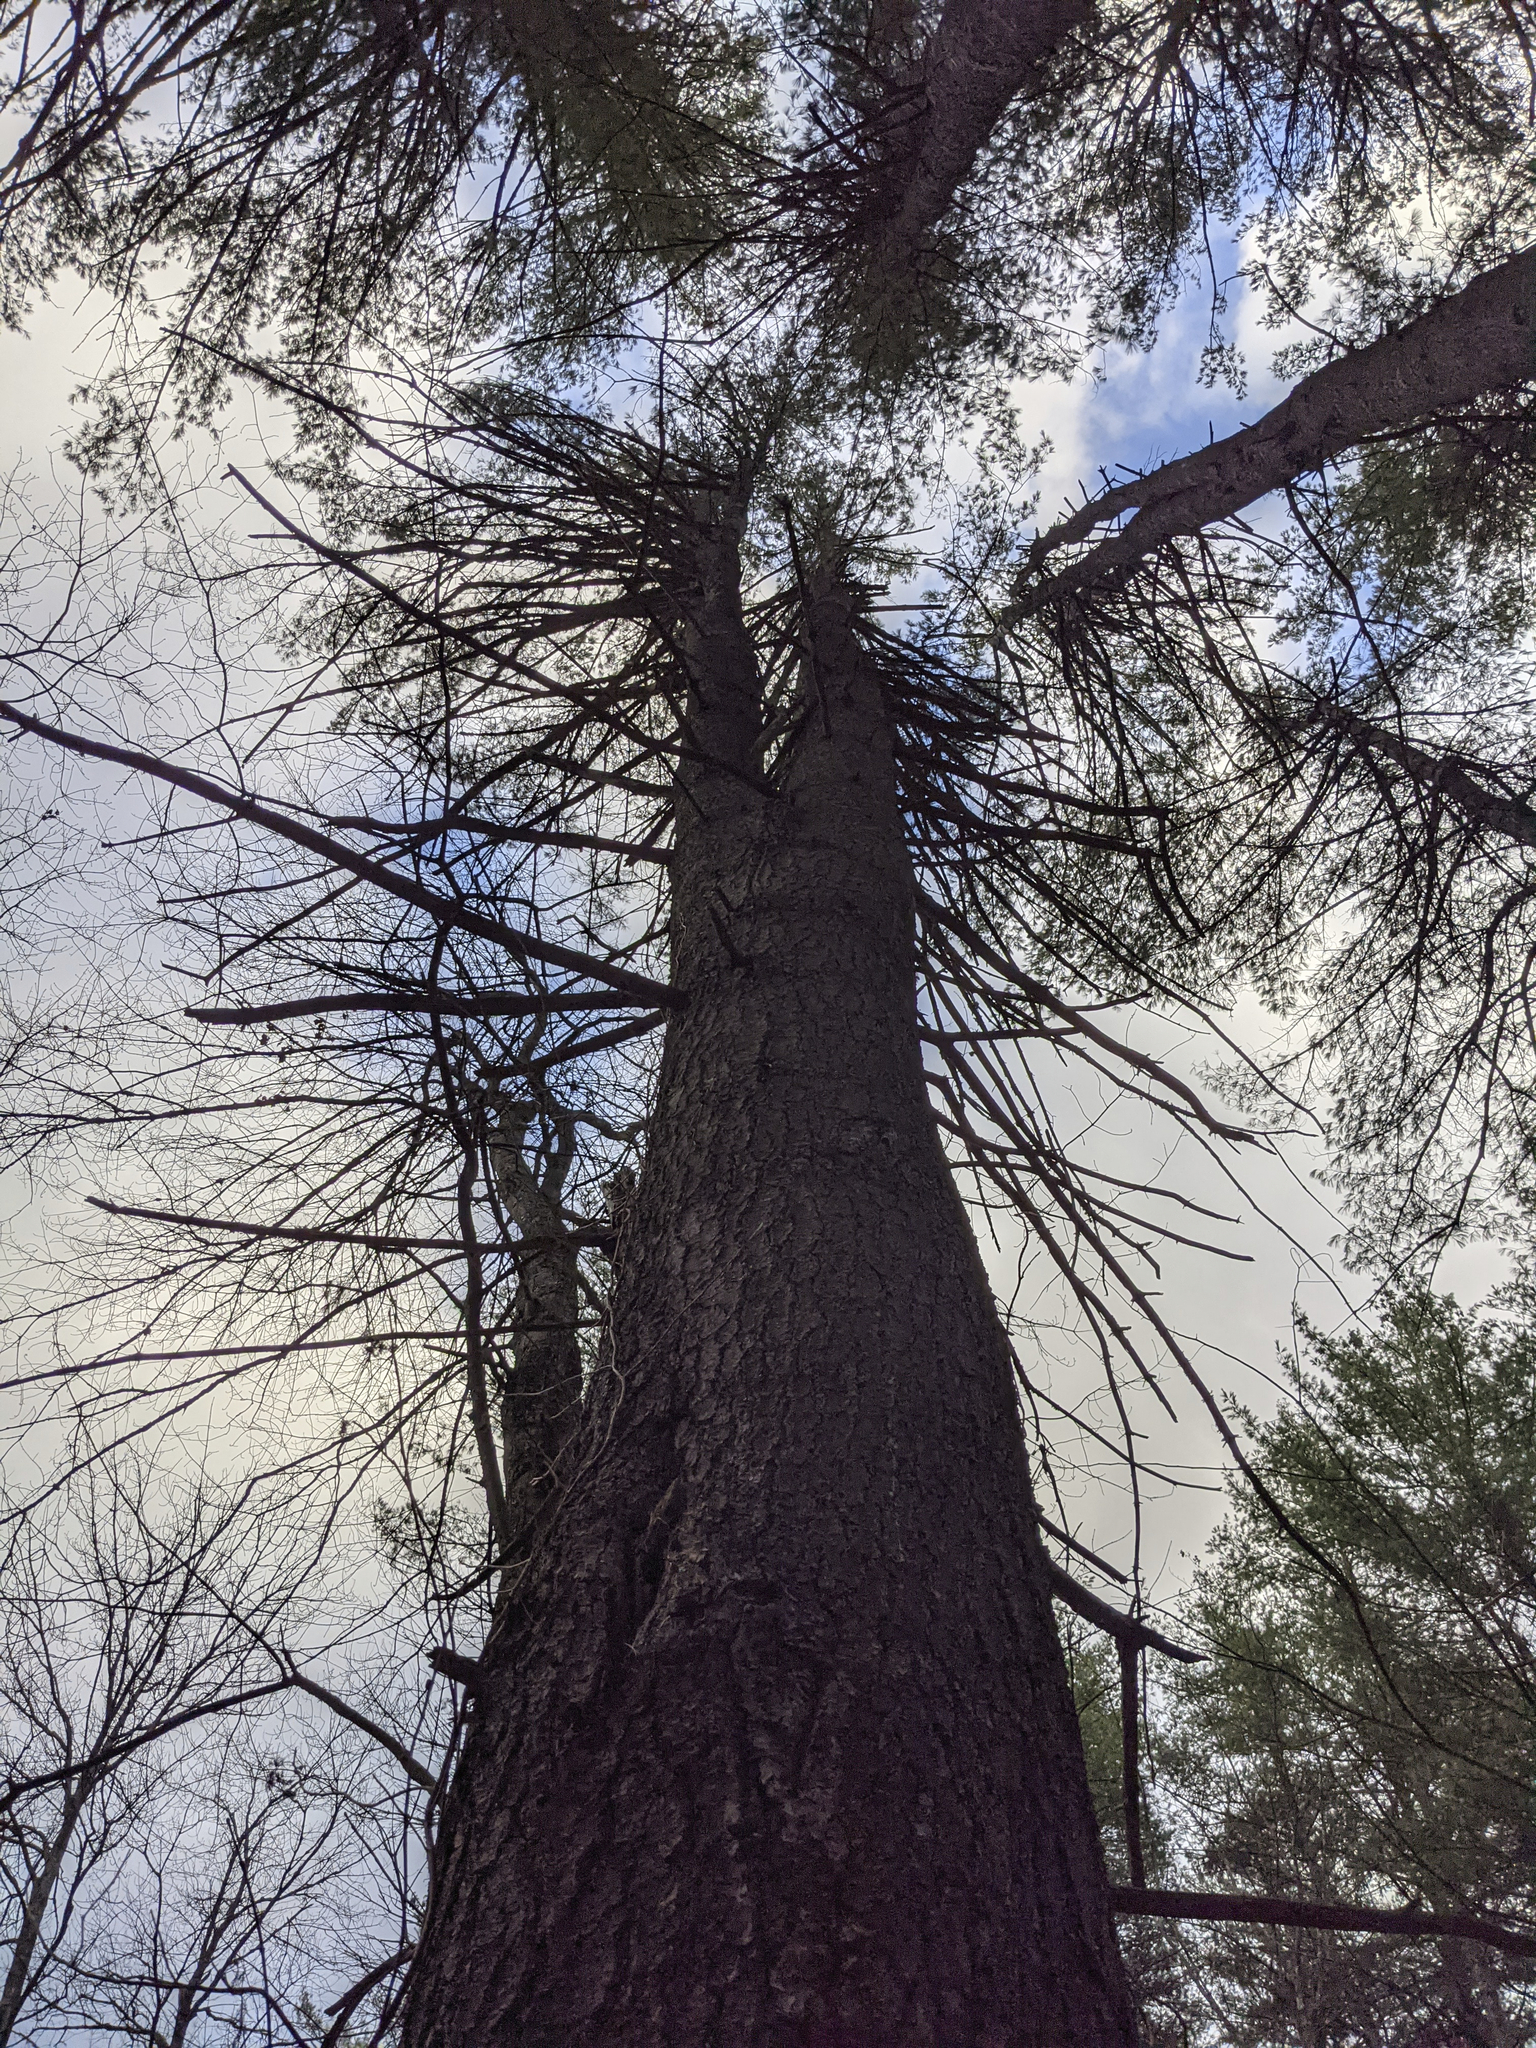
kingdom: Plantae
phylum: Tracheophyta
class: Pinopsida
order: Pinales
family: Pinaceae
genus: Pinus
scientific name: Pinus strobus
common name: Weymouth pine
